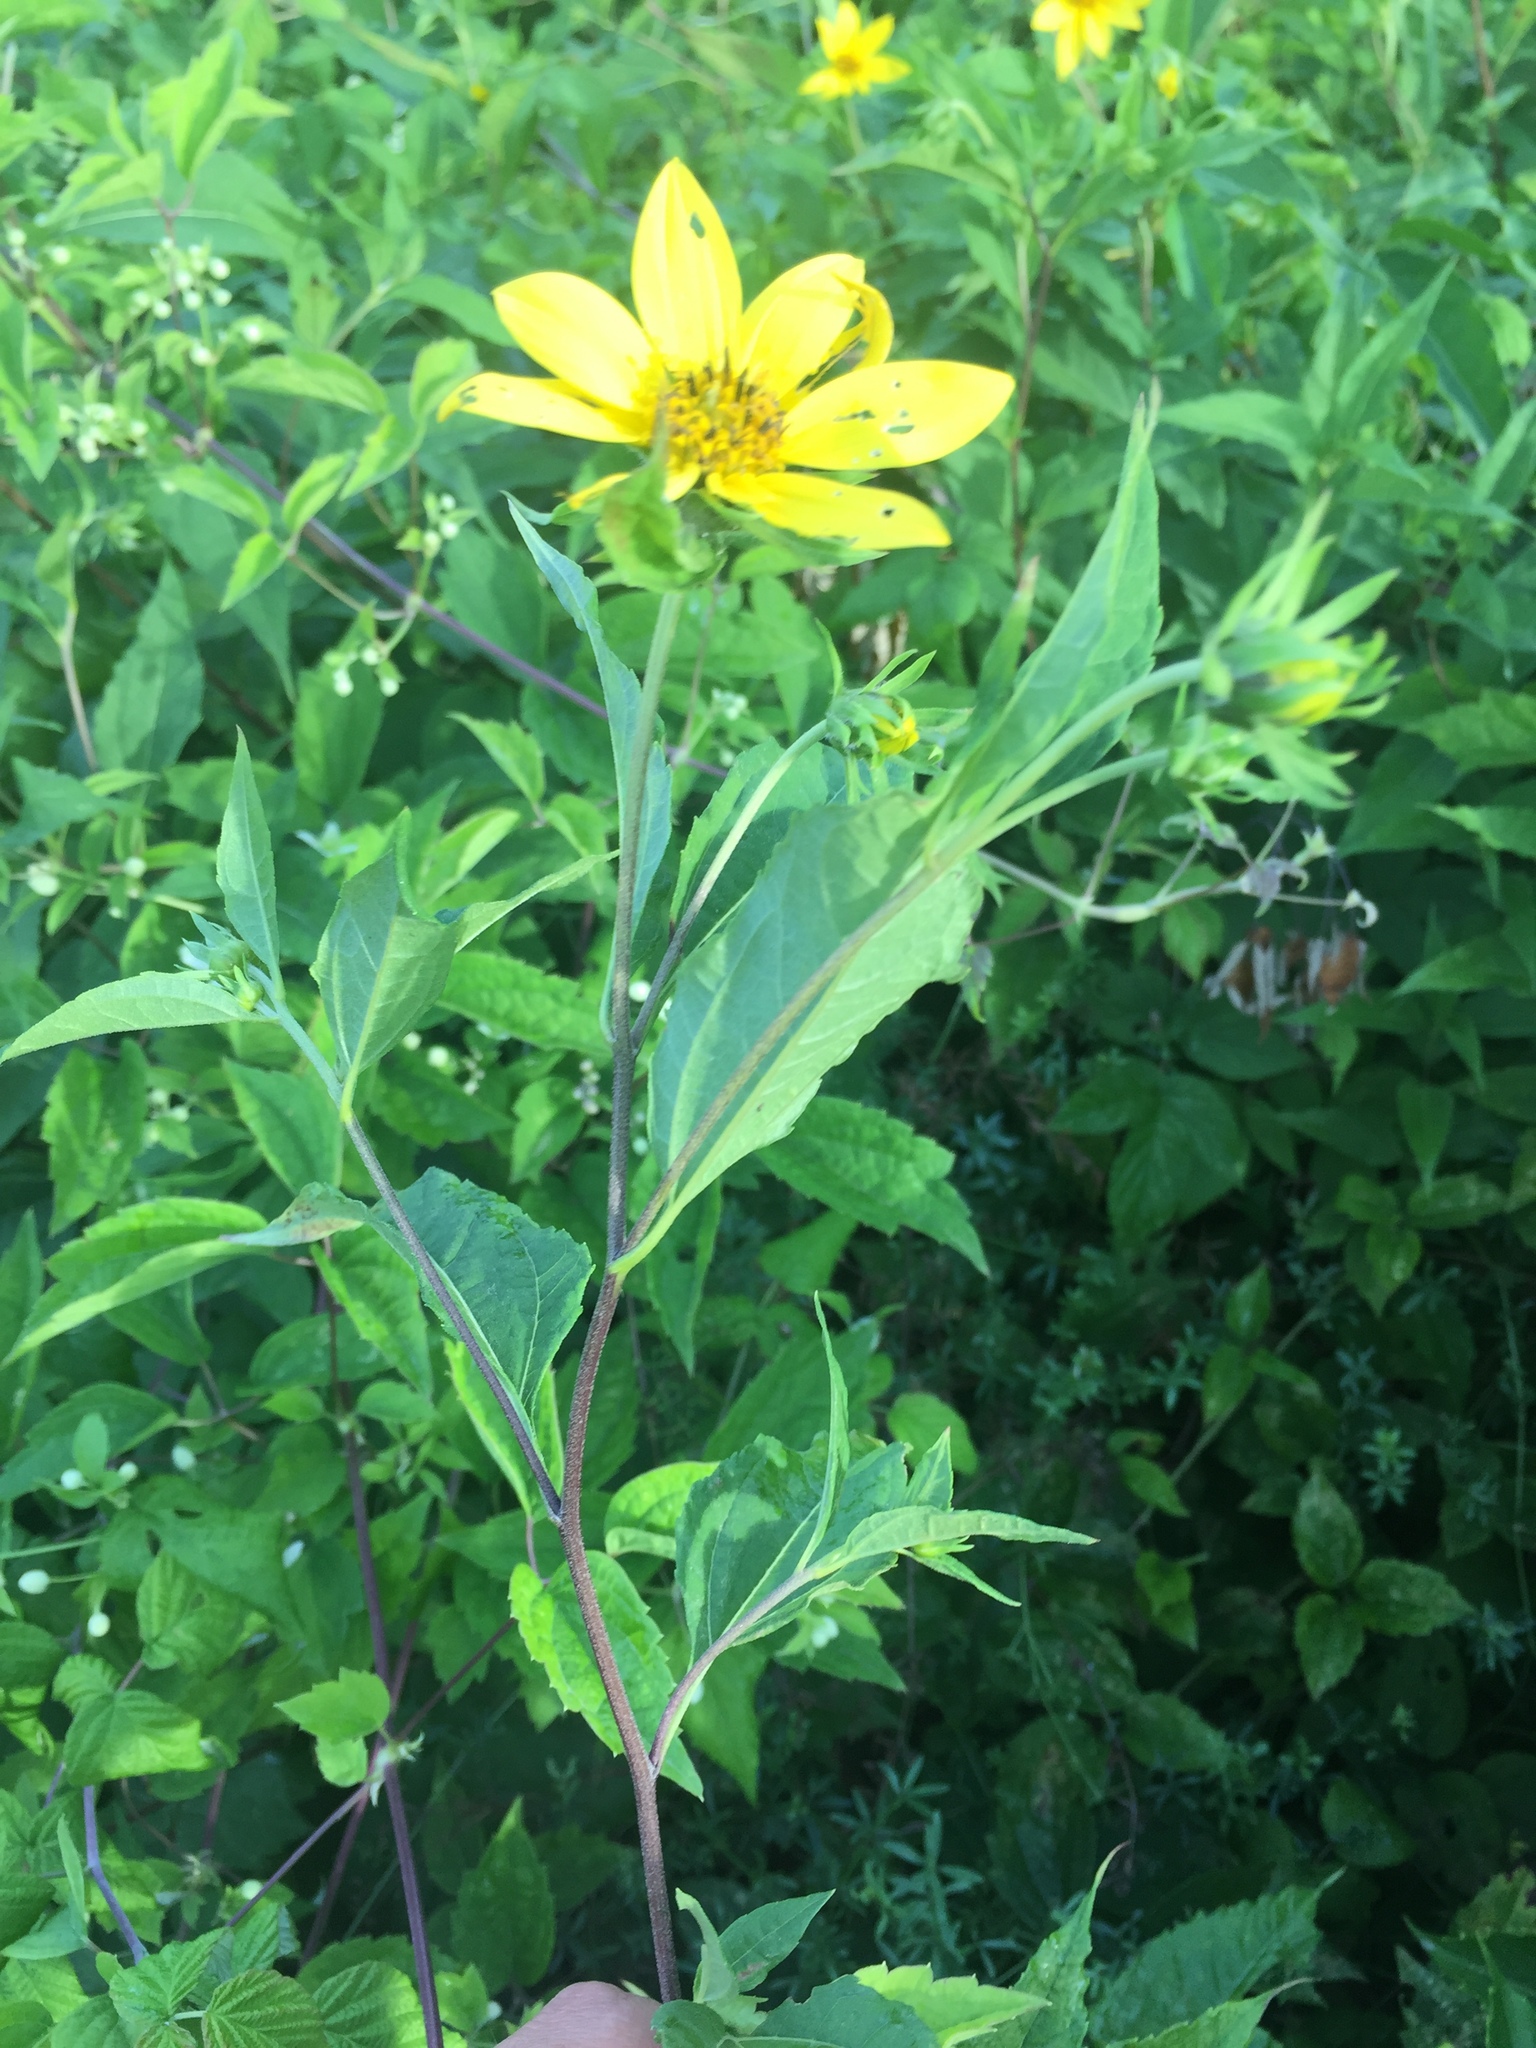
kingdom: Plantae
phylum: Tracheophyta
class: Magnoliopsida
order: Asterales
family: Asteraceae
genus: Helianthus
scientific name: Helianthus tuberosus
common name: Jerusalem artichoke
